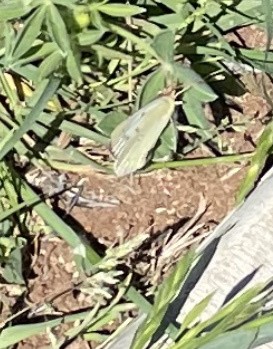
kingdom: Animalia
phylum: Arthropoda
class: Insecta
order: Lepidoptera
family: Pieridae
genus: Colias
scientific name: Colias eurytheme
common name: Alfalfa butterfly
